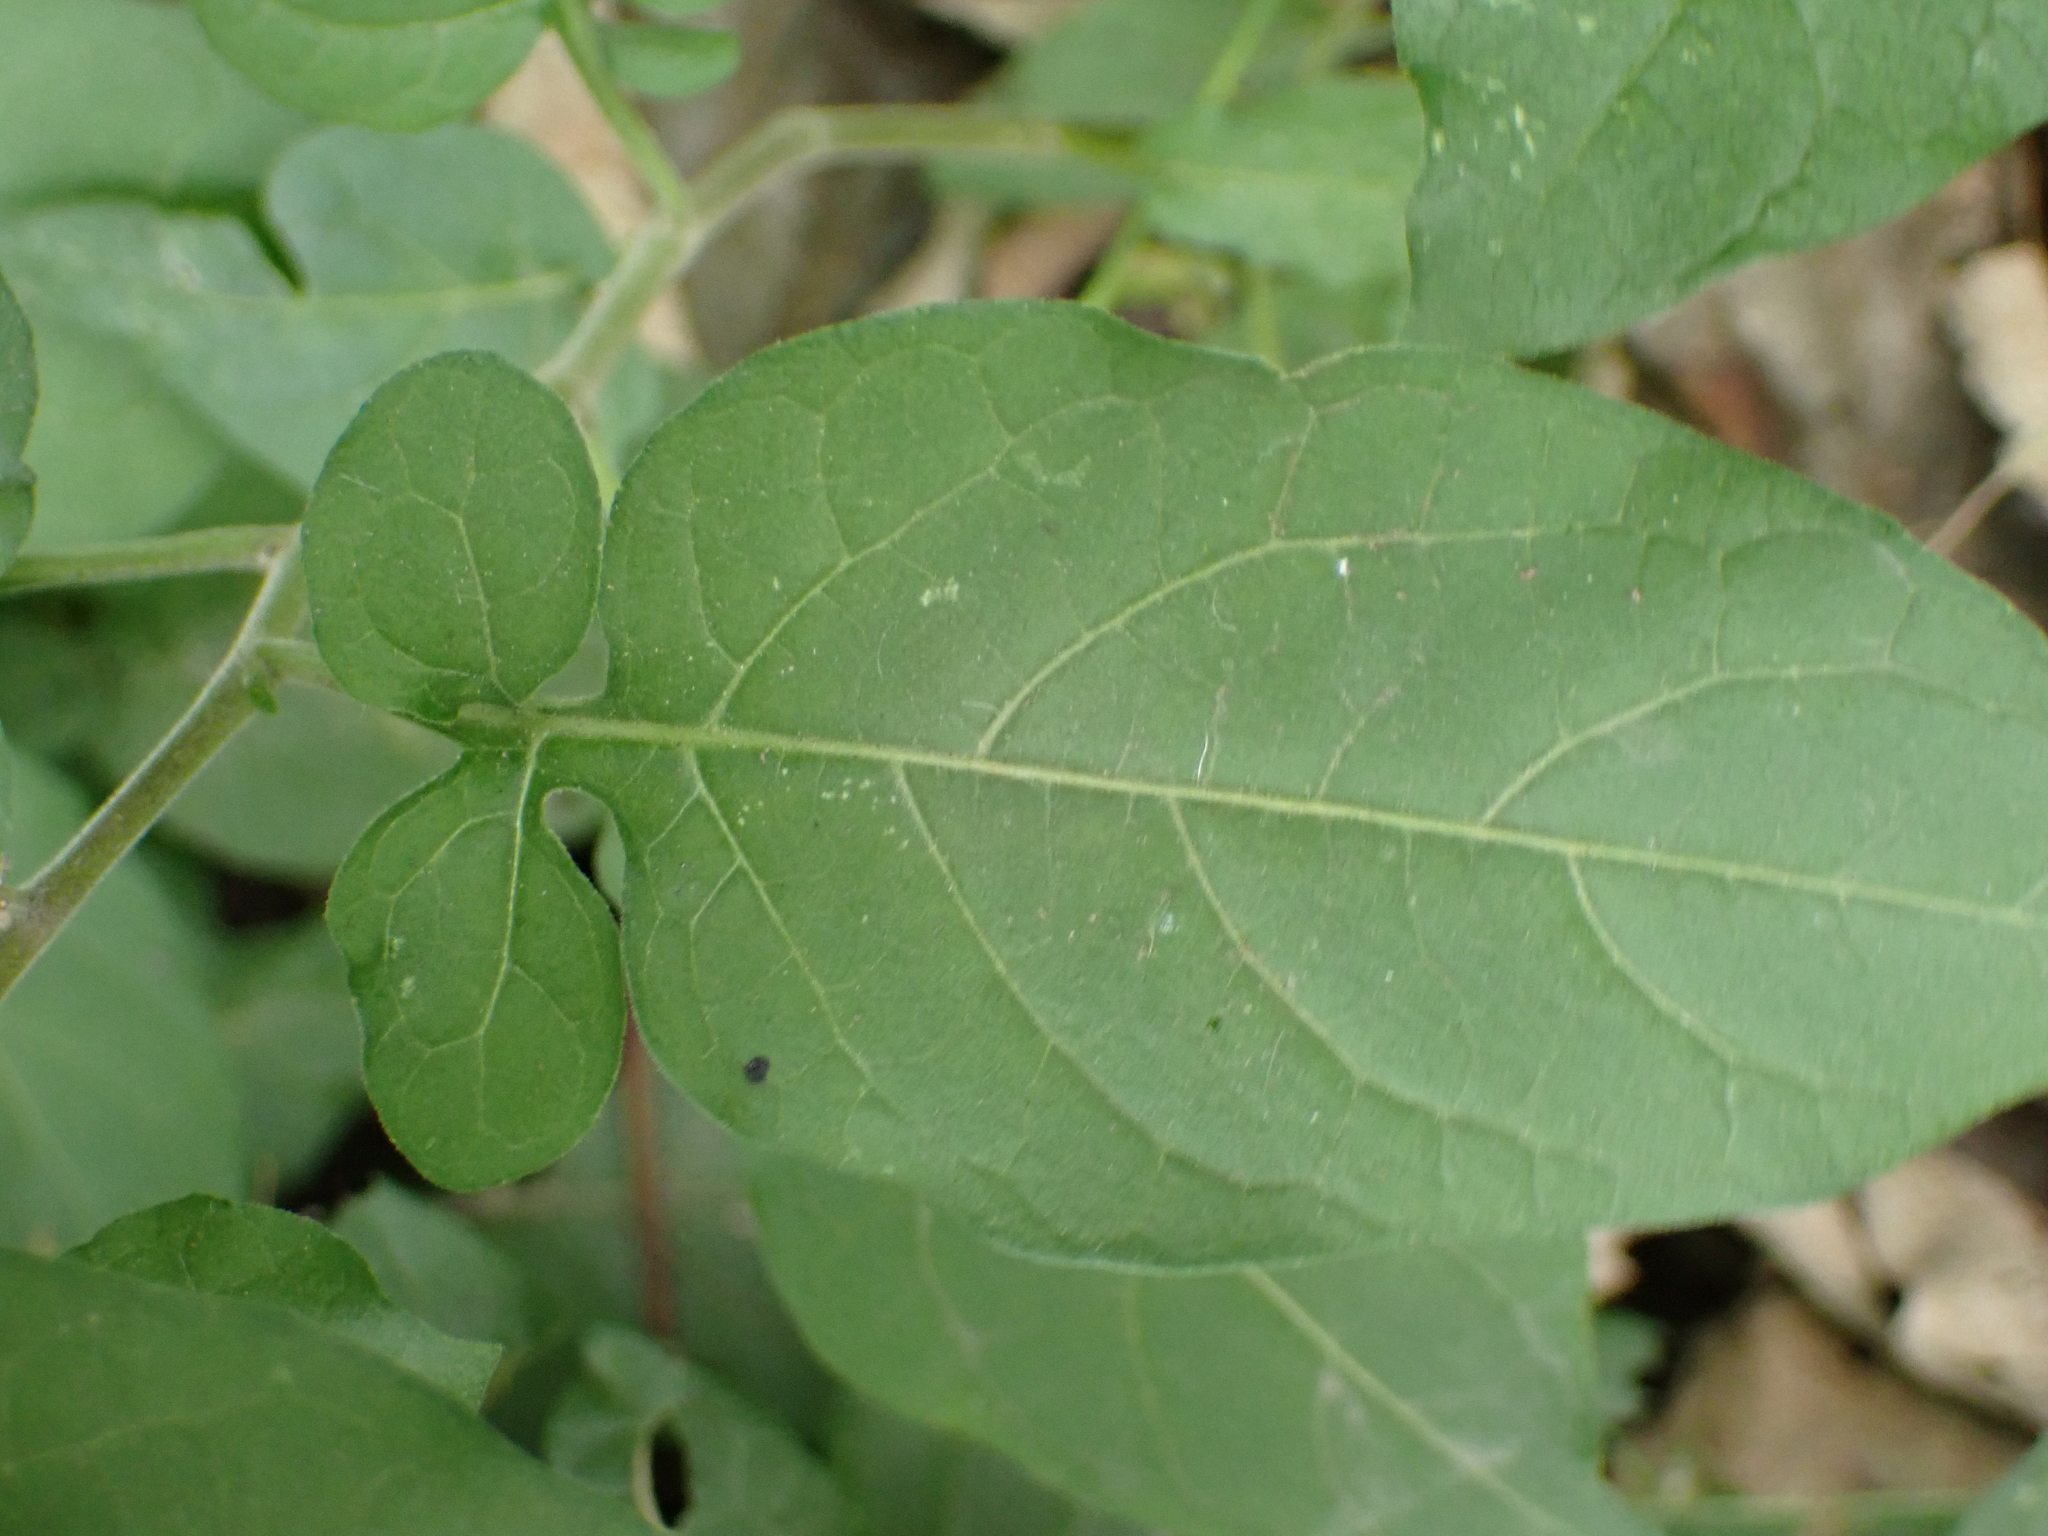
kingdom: Plantae
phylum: Tracheophyta
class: Magnoliopsida
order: Solanales
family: Solanaceae
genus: Solanum
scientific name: Solanum dulcamara
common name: Climbing nightshade
